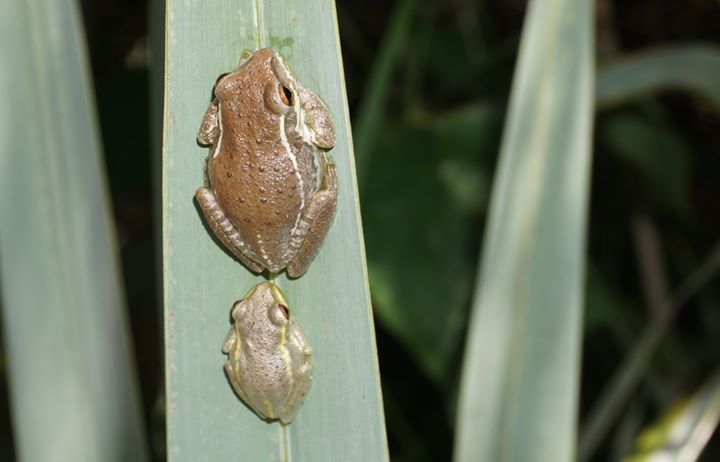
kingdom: Animalia
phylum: Chordata
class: Amphibia
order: Anura
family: Hylidae
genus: Osteopilus
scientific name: Osteopilus septentrionalis
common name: Cuban treefrog
